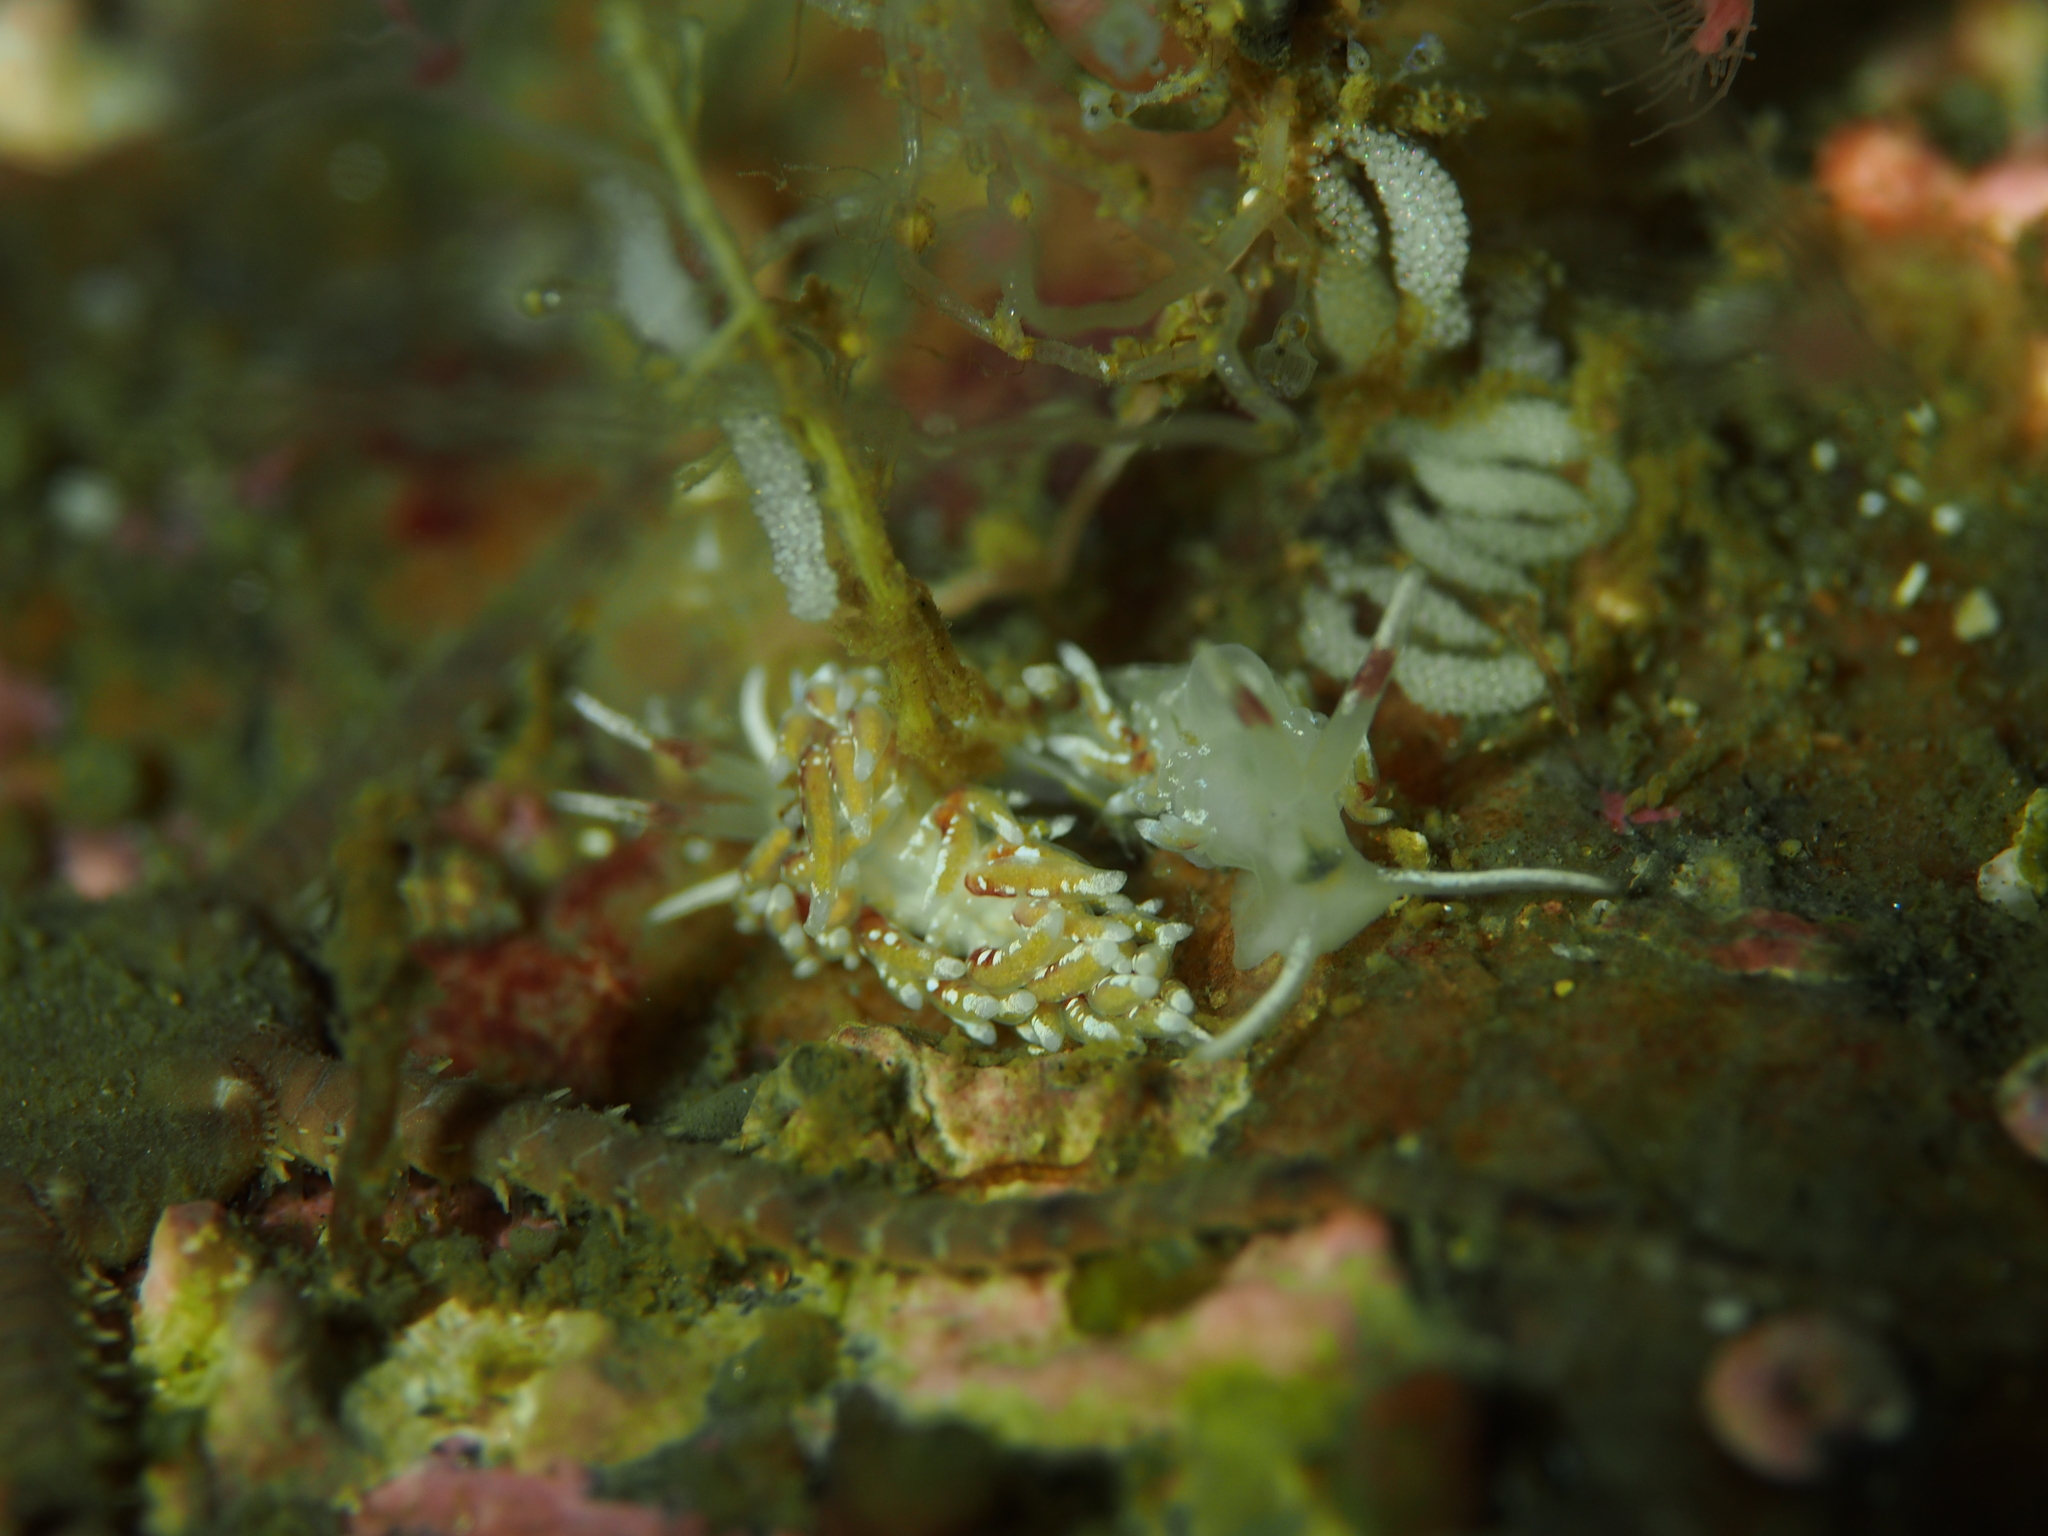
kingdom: Animalia
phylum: Mollusca
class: Gastropoda
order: Nudibranchia
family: Trinchesiidae
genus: Rubramoena
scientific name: Rubramoena rubescens
